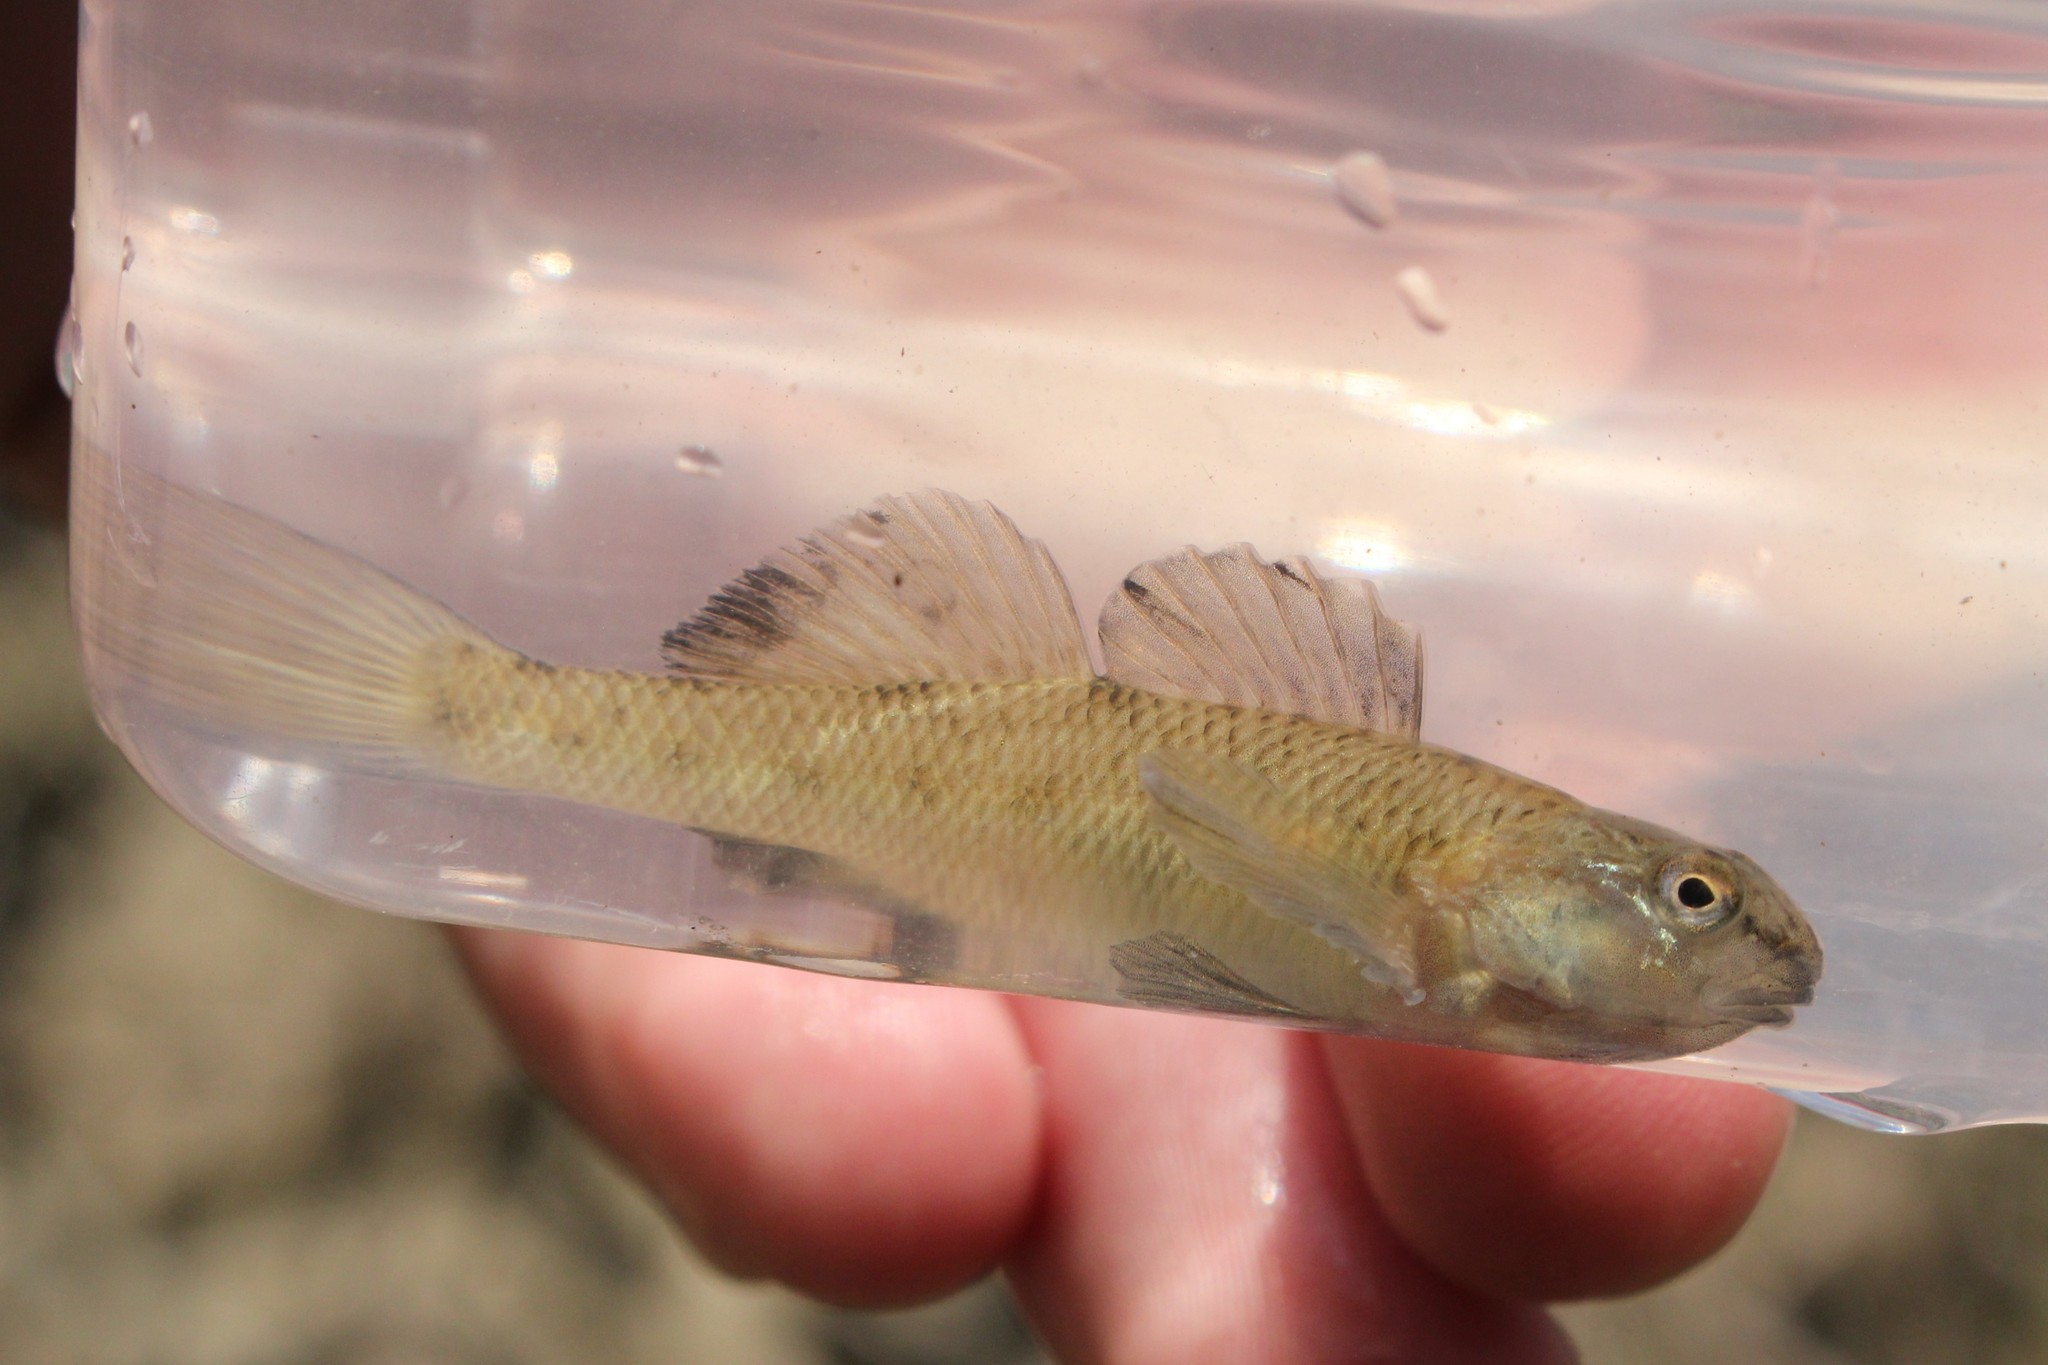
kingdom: Animalia
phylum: Chordata
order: Perciformes
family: Percidae
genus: Etheostoma
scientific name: Etheostoma nigrum
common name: Johnny darter
